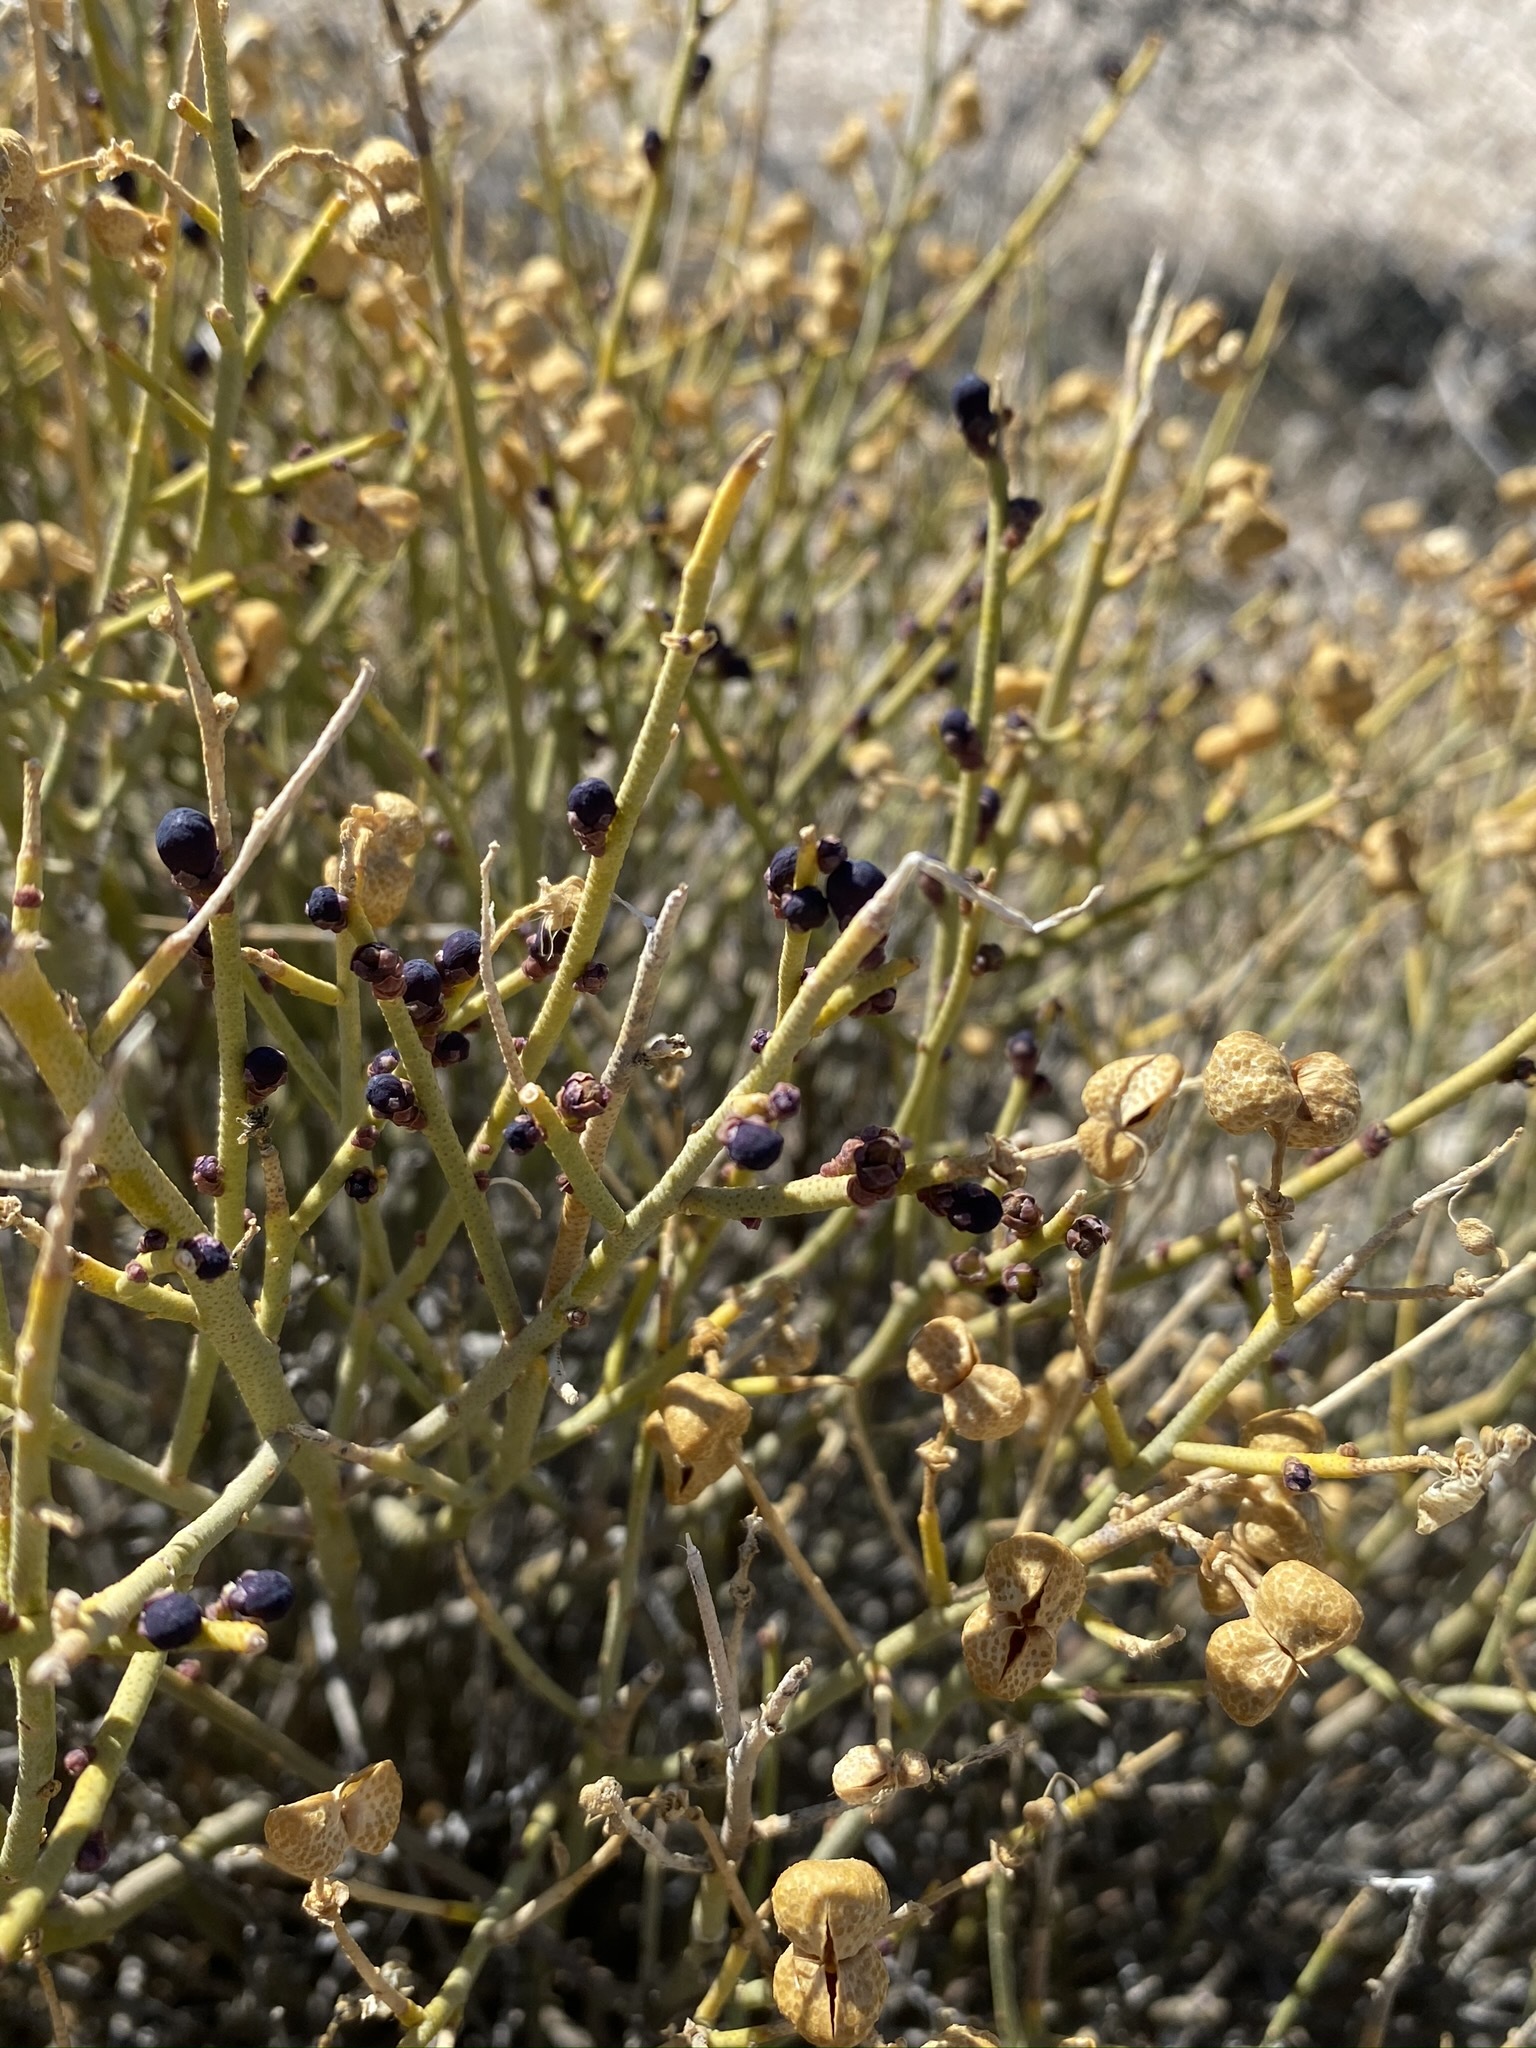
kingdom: Plantae
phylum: Tracheophyta
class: Magnoliopsida
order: Sapindales
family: Rutaceae
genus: Thamnosma
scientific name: Thamnosma montana
